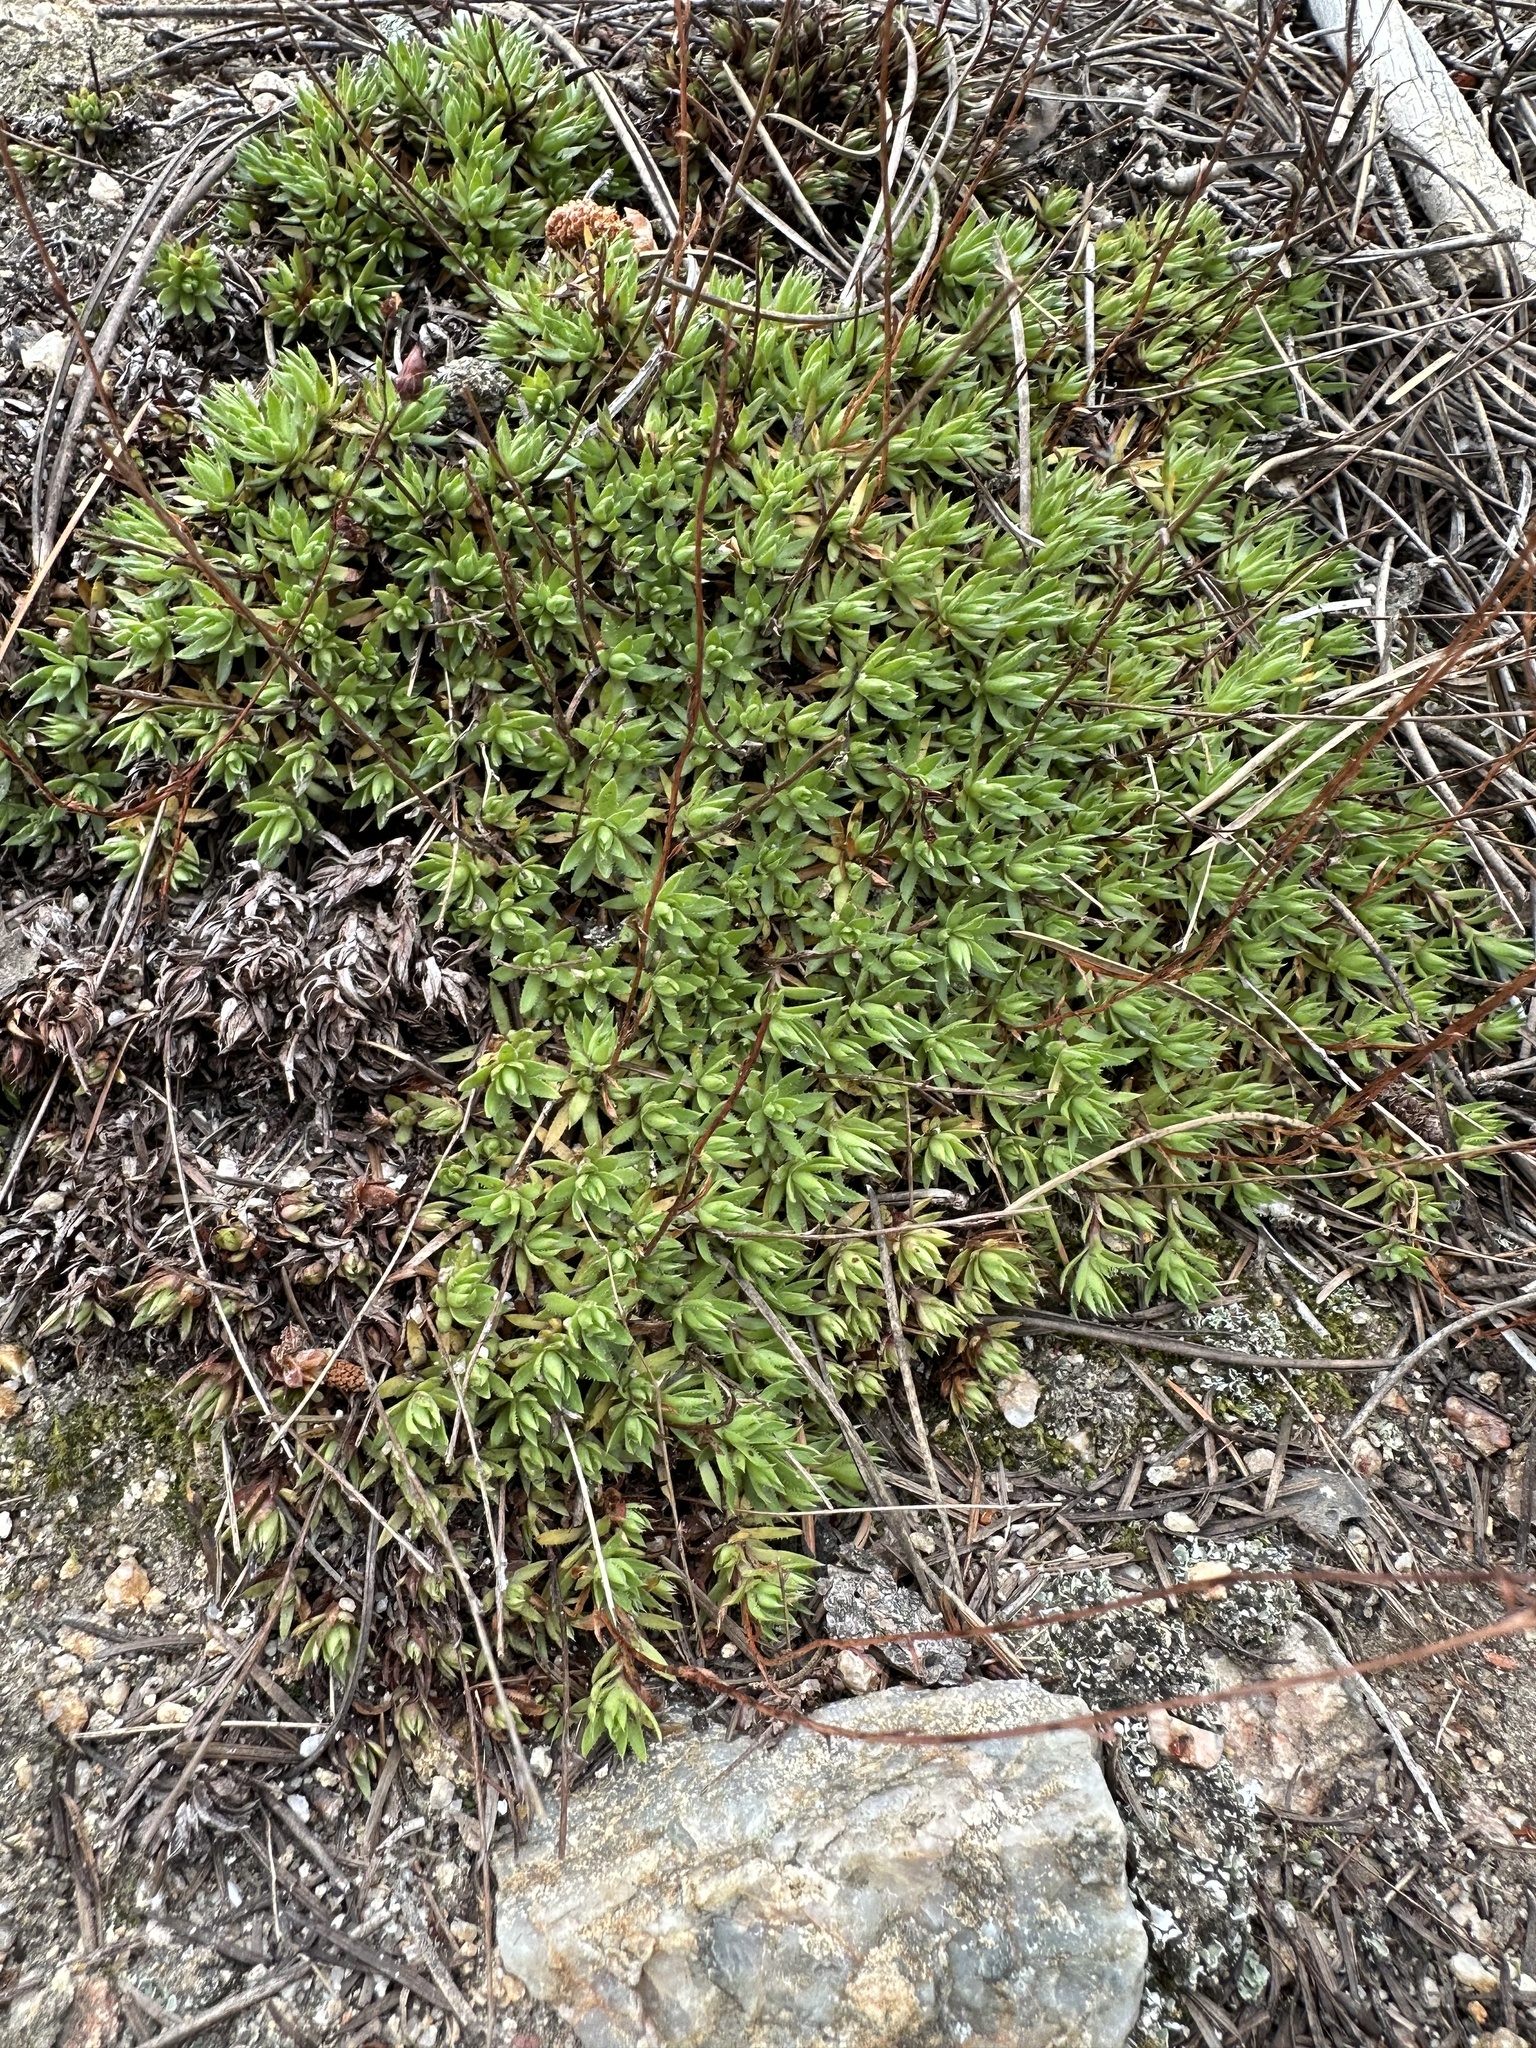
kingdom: Plantae
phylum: Tracheophyta
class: Magnoliopsida
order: Saxifragales
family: Saxifragaceae
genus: Saxifraga
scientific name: Saxifraga bronchialis
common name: Matted saxifrage
